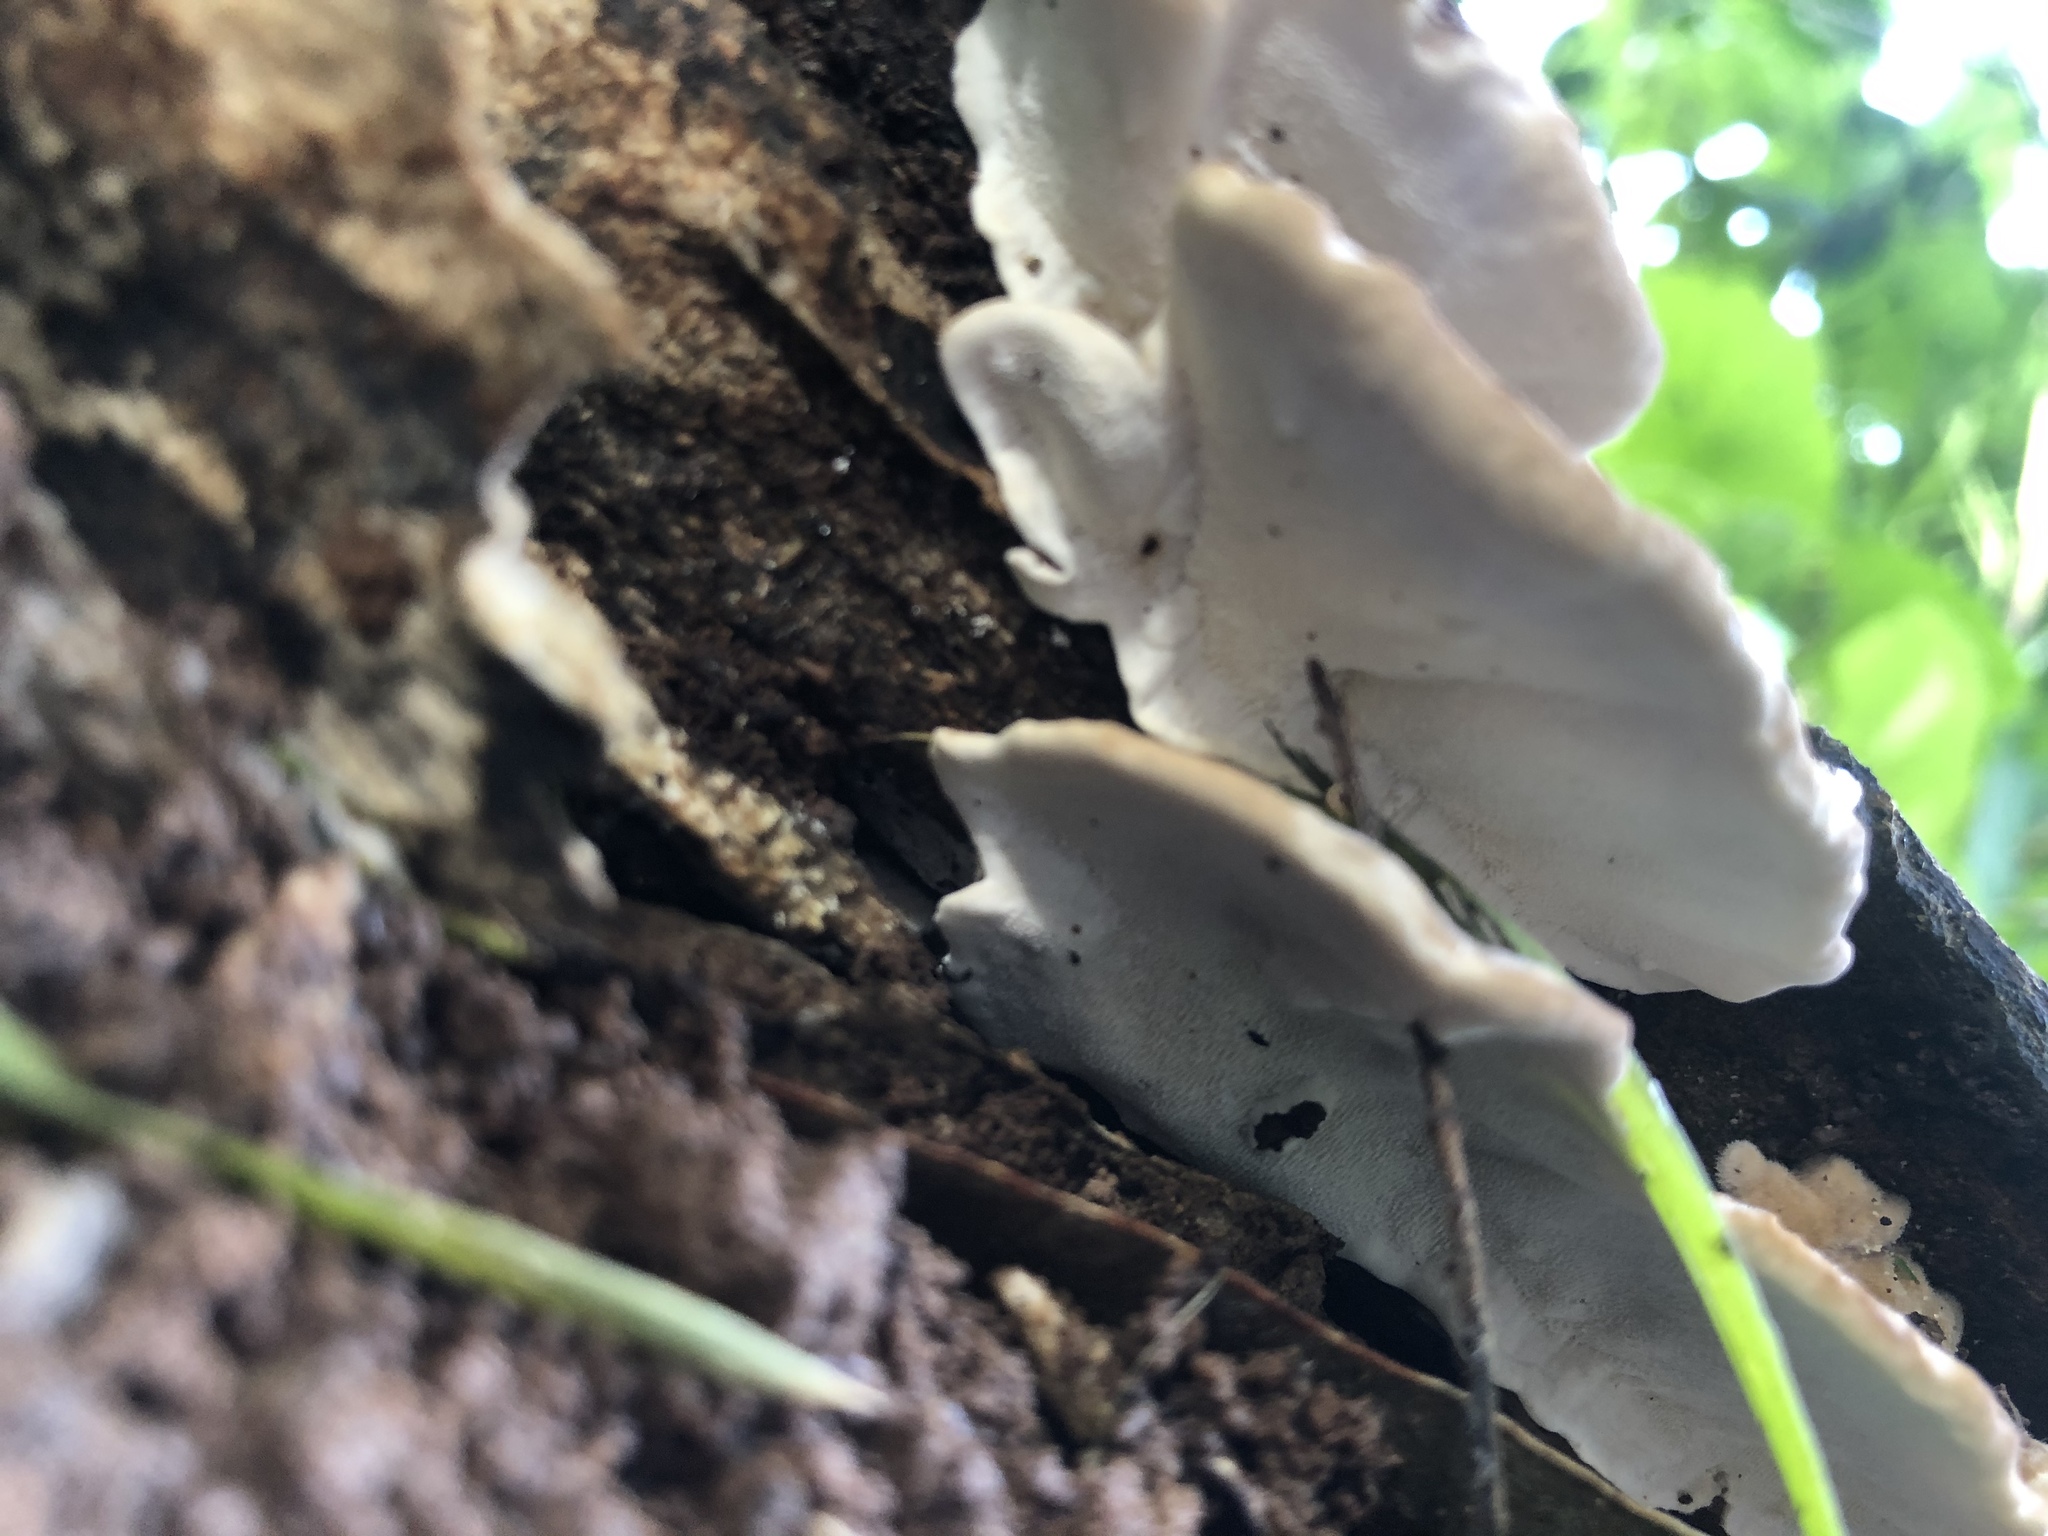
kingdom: Fungi
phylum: Basidiomycota
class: Agaricomycetes
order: Polyporales
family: Polyporaceae
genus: Trametes
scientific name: Trametes versicolor
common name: Turkeytail
